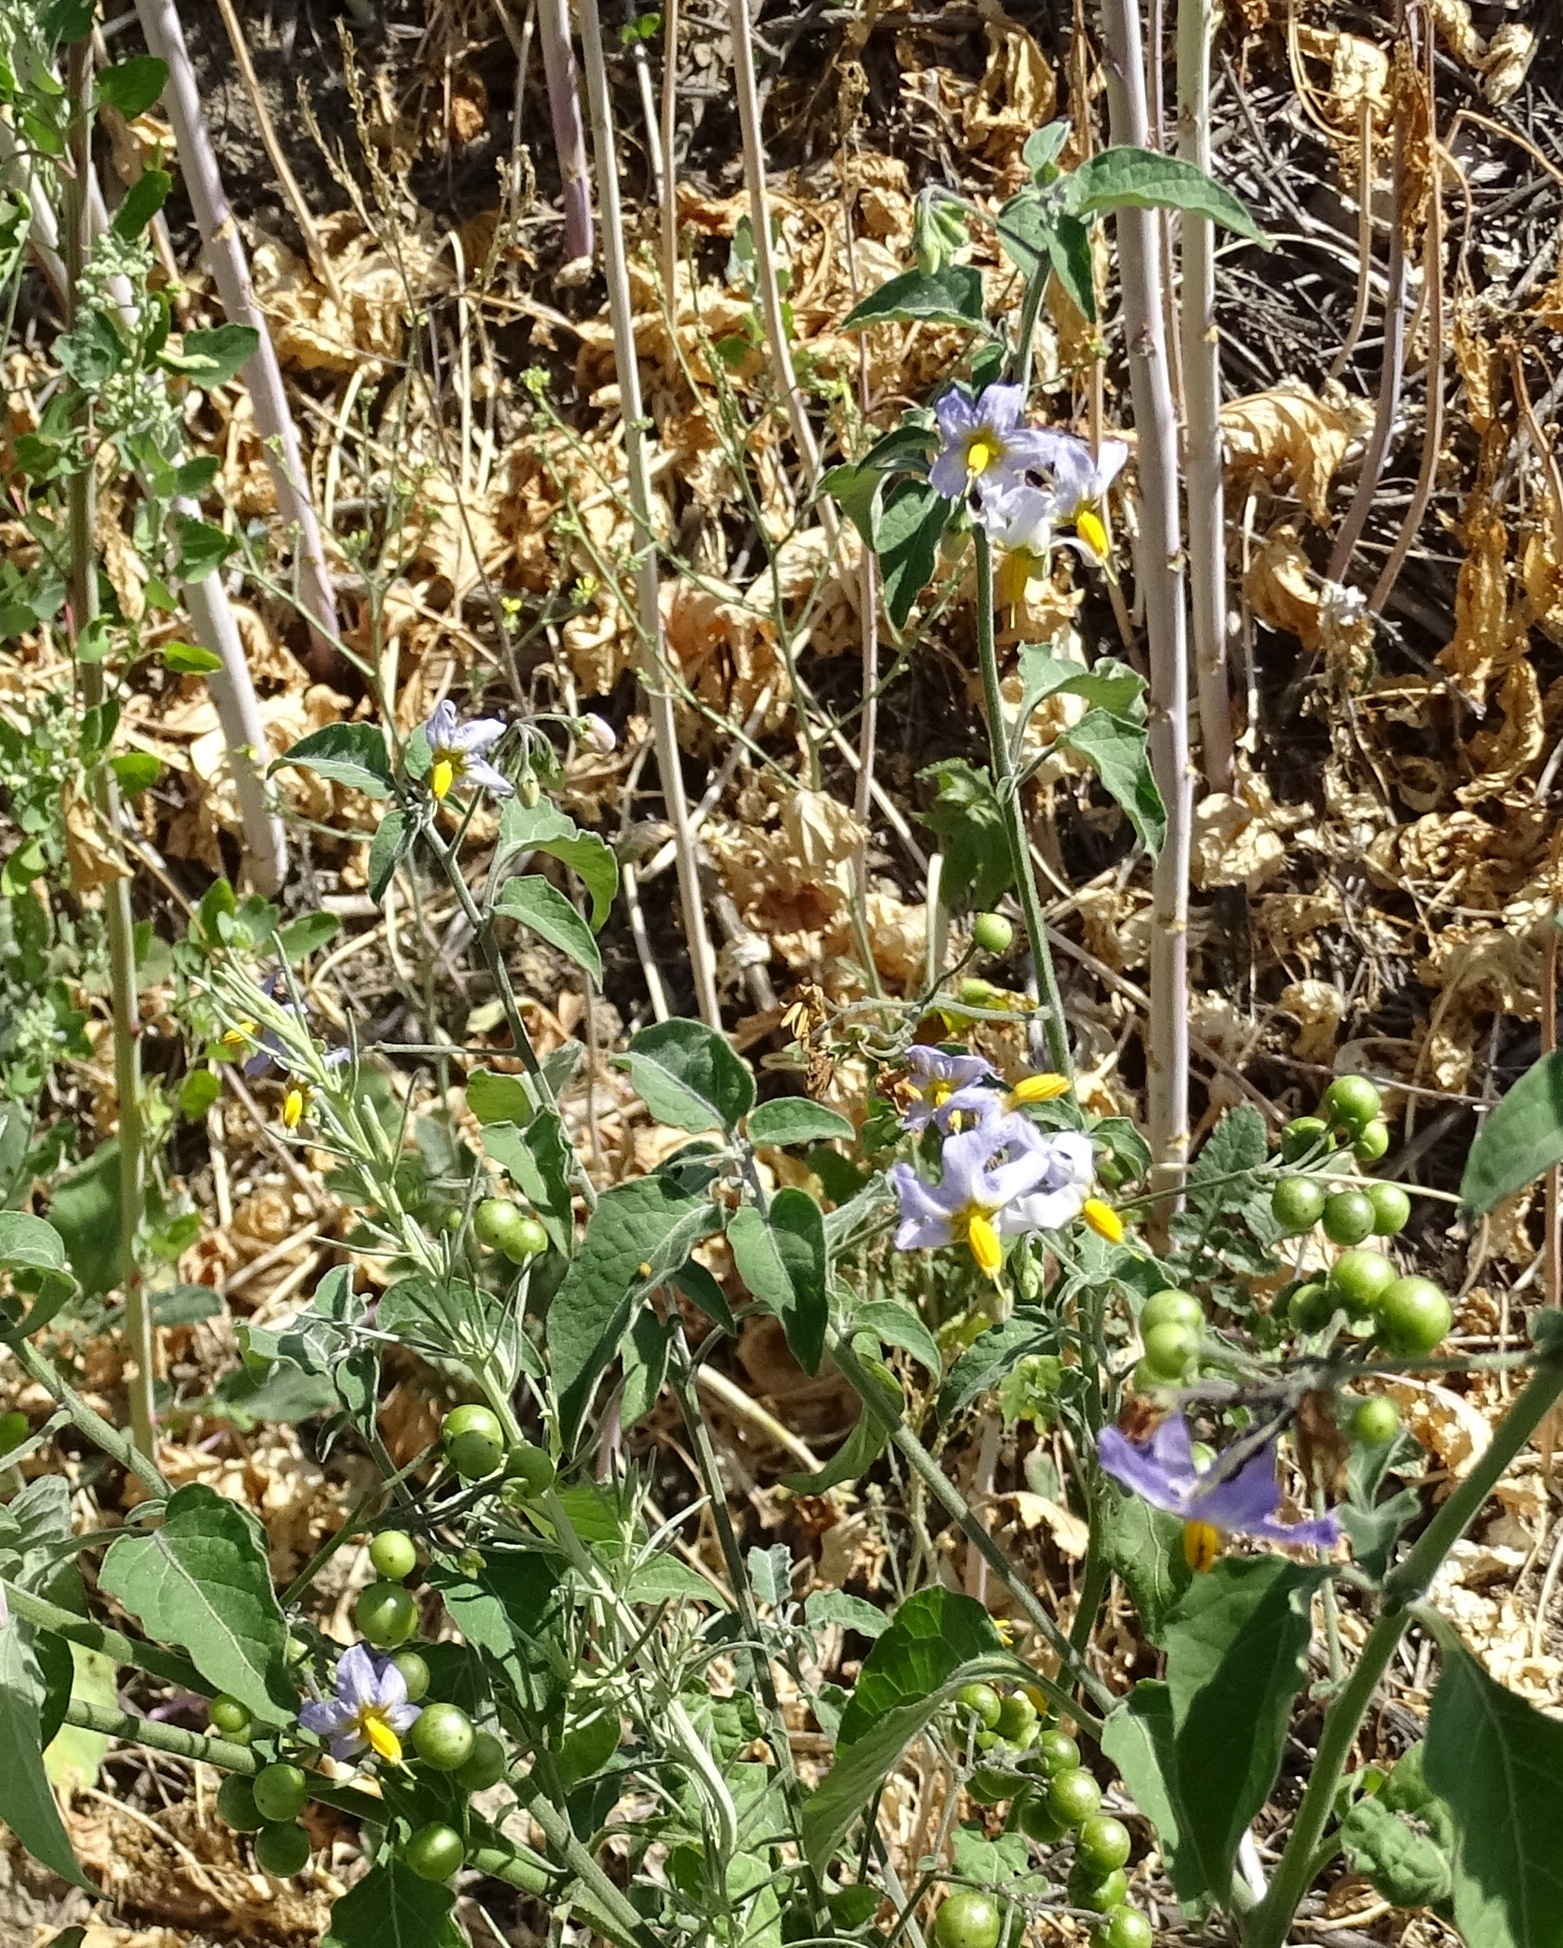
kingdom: Plantae
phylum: Tracheophyta
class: Magnoliopsida
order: Solanales
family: Solanaceae
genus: Solanum
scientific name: Solanum douglasii
